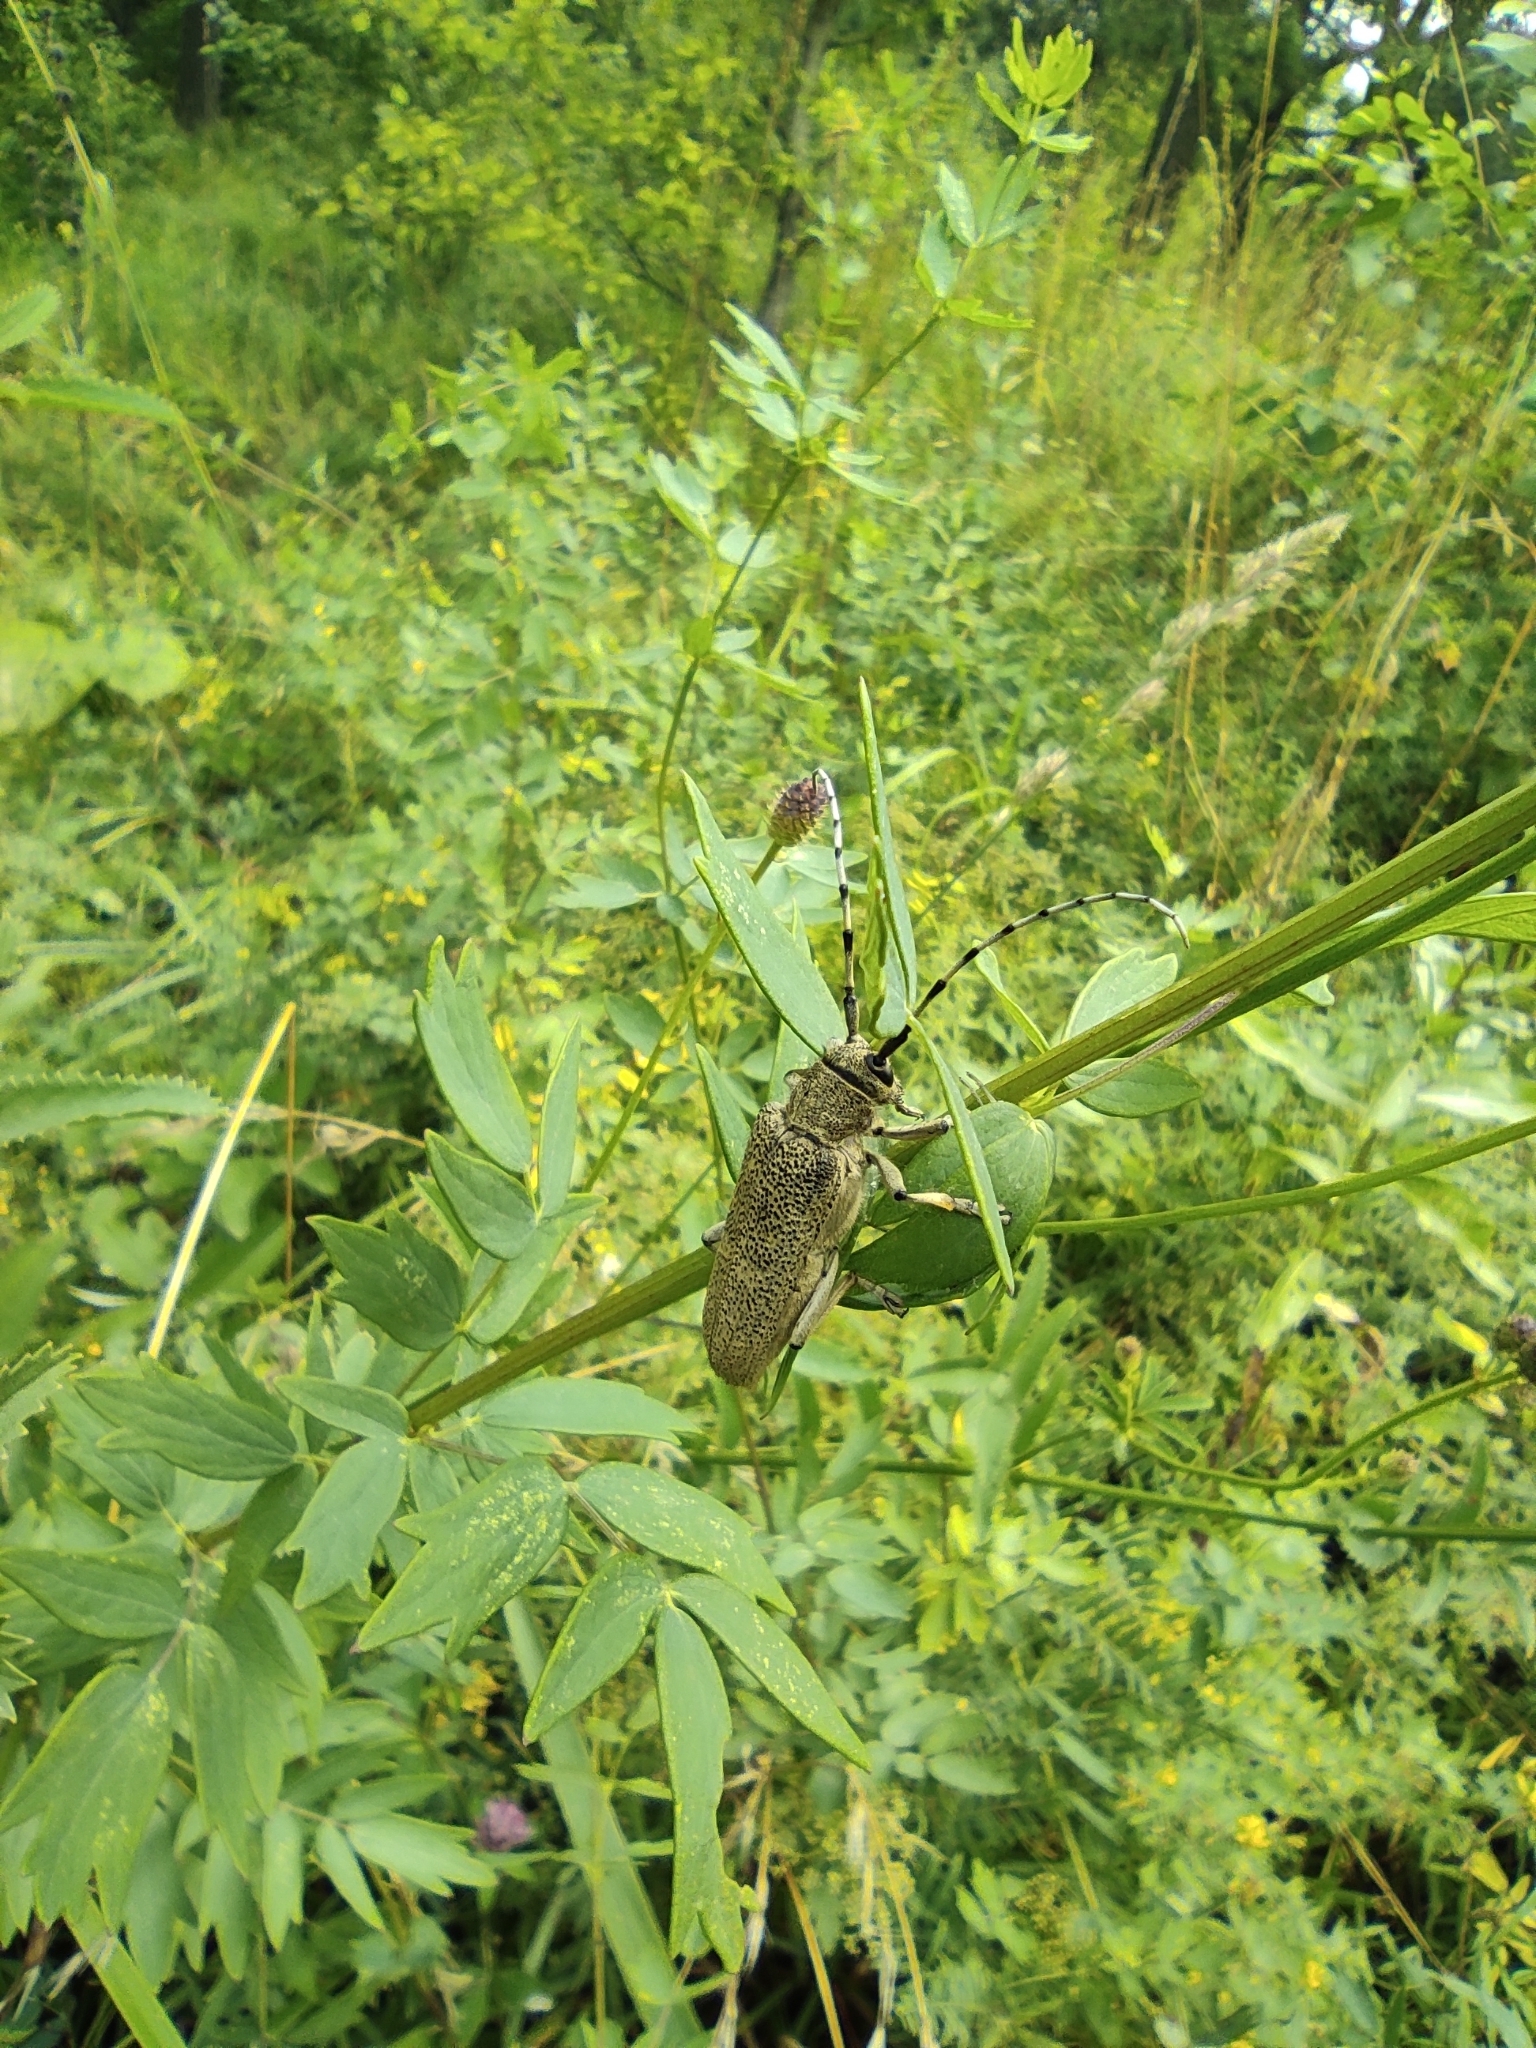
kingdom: Animalia
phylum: Arthropoda
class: Insecta
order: Coleoptera
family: Cerambycidae
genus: Saperda
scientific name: Saperda carcharias
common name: Poplar borer
